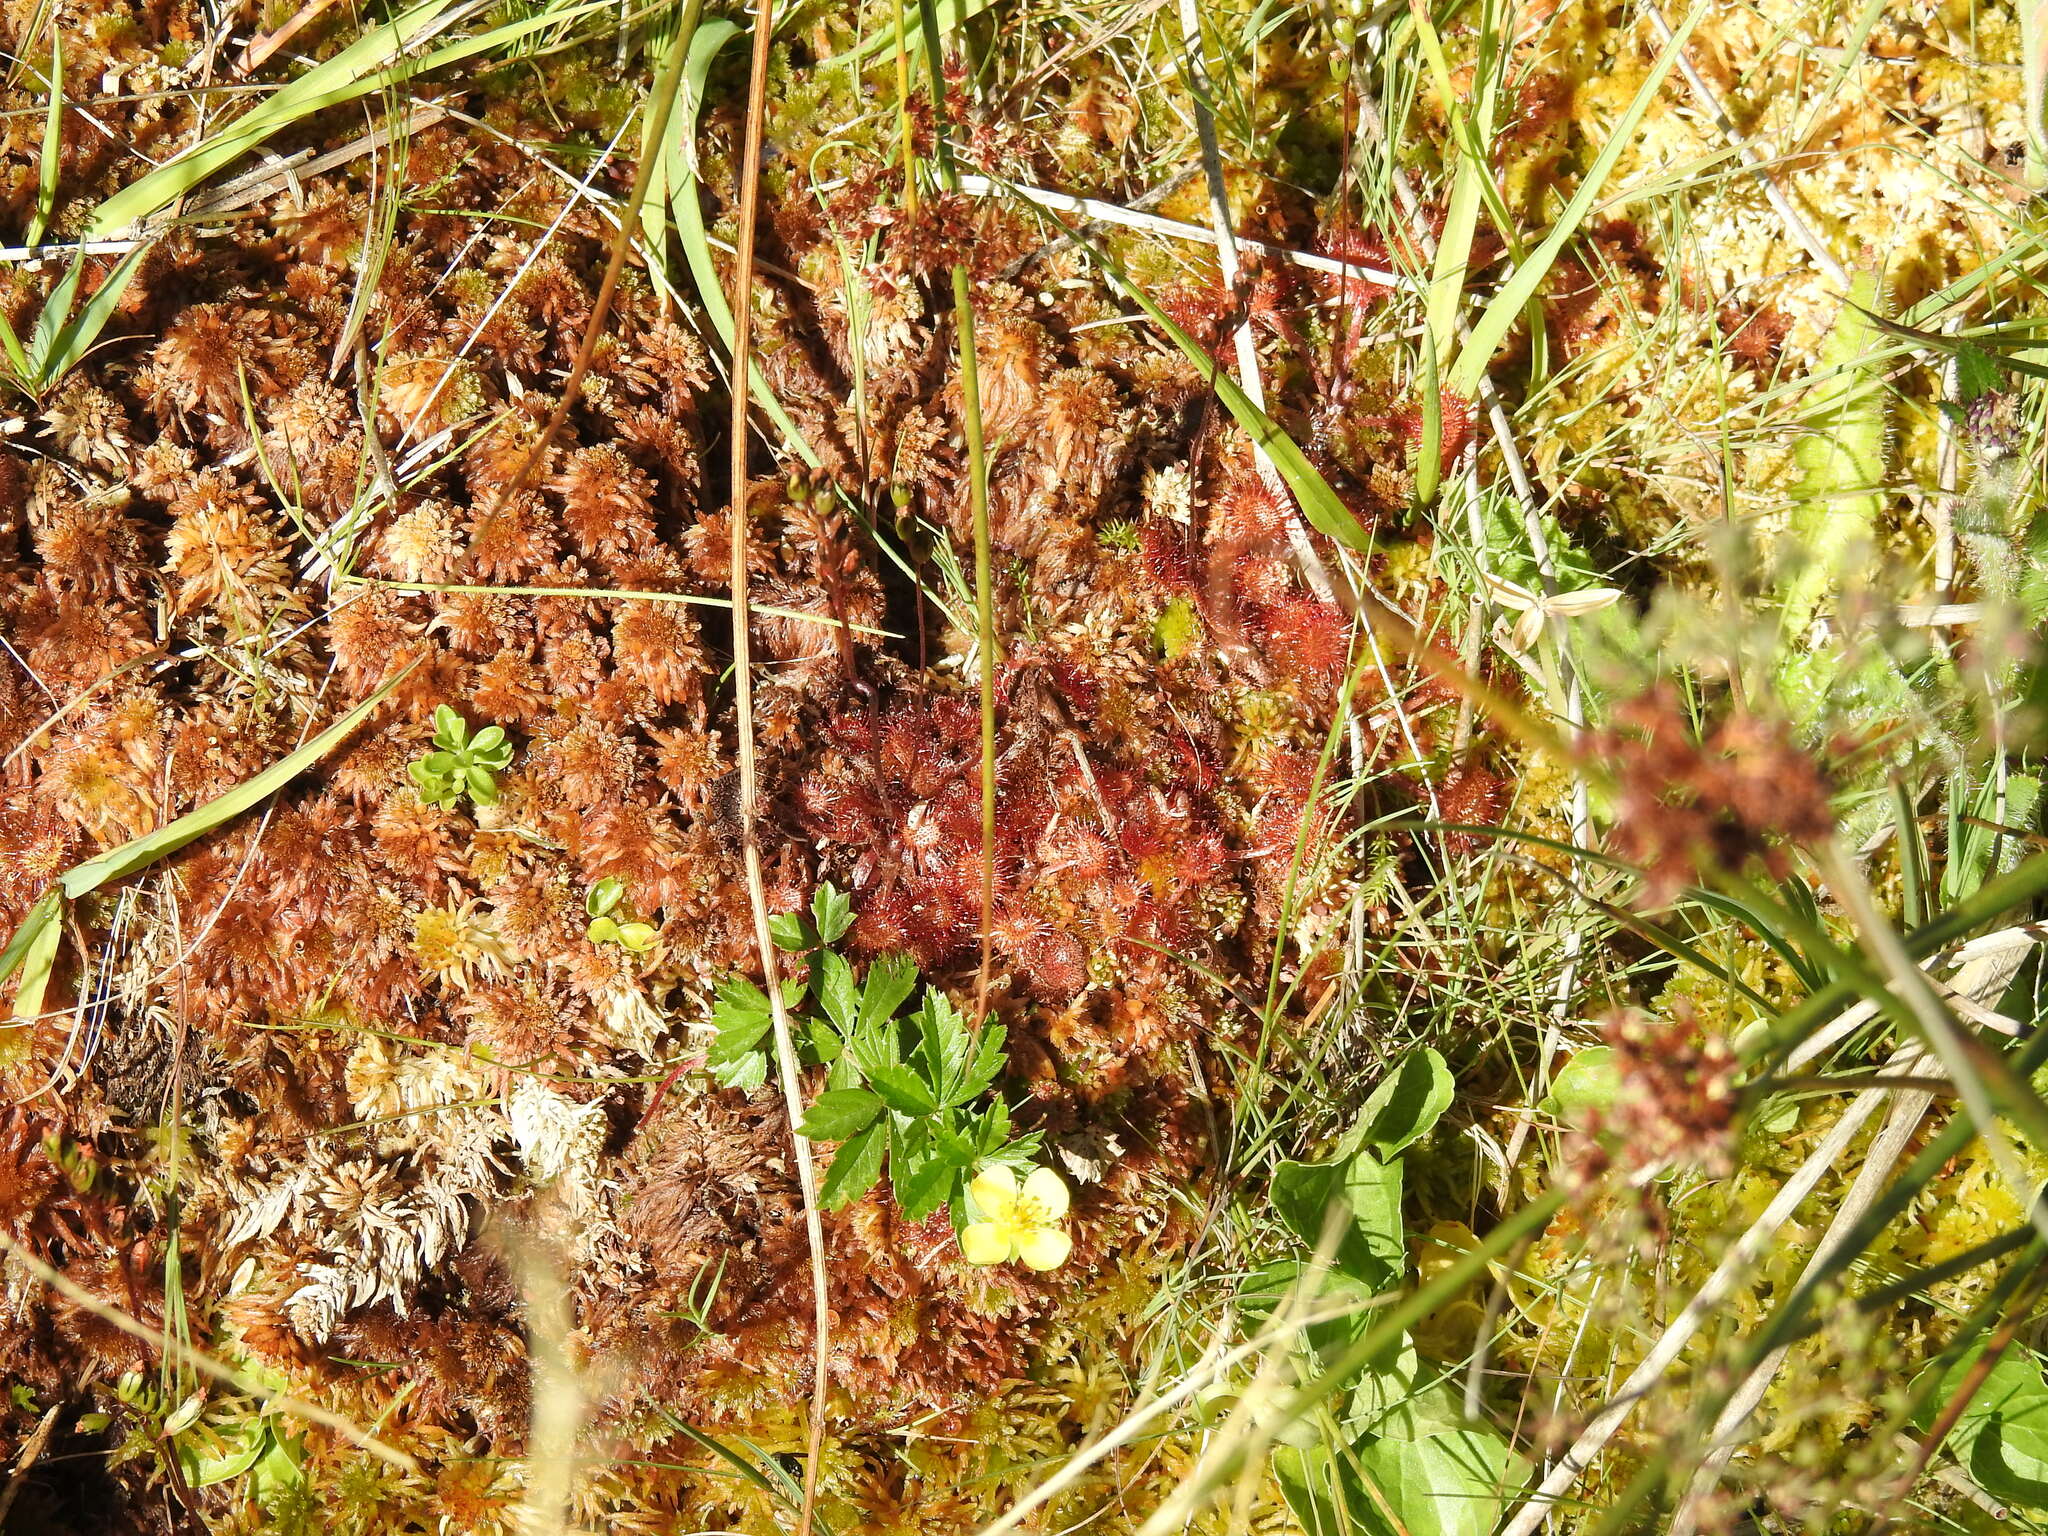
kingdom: Plantae
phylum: Tracheophyta
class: Magnoliopsida
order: Caryophyllales
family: Droseraceae
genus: Drosera
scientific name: Drosera rotundifolia
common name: Round-leaved sundew
